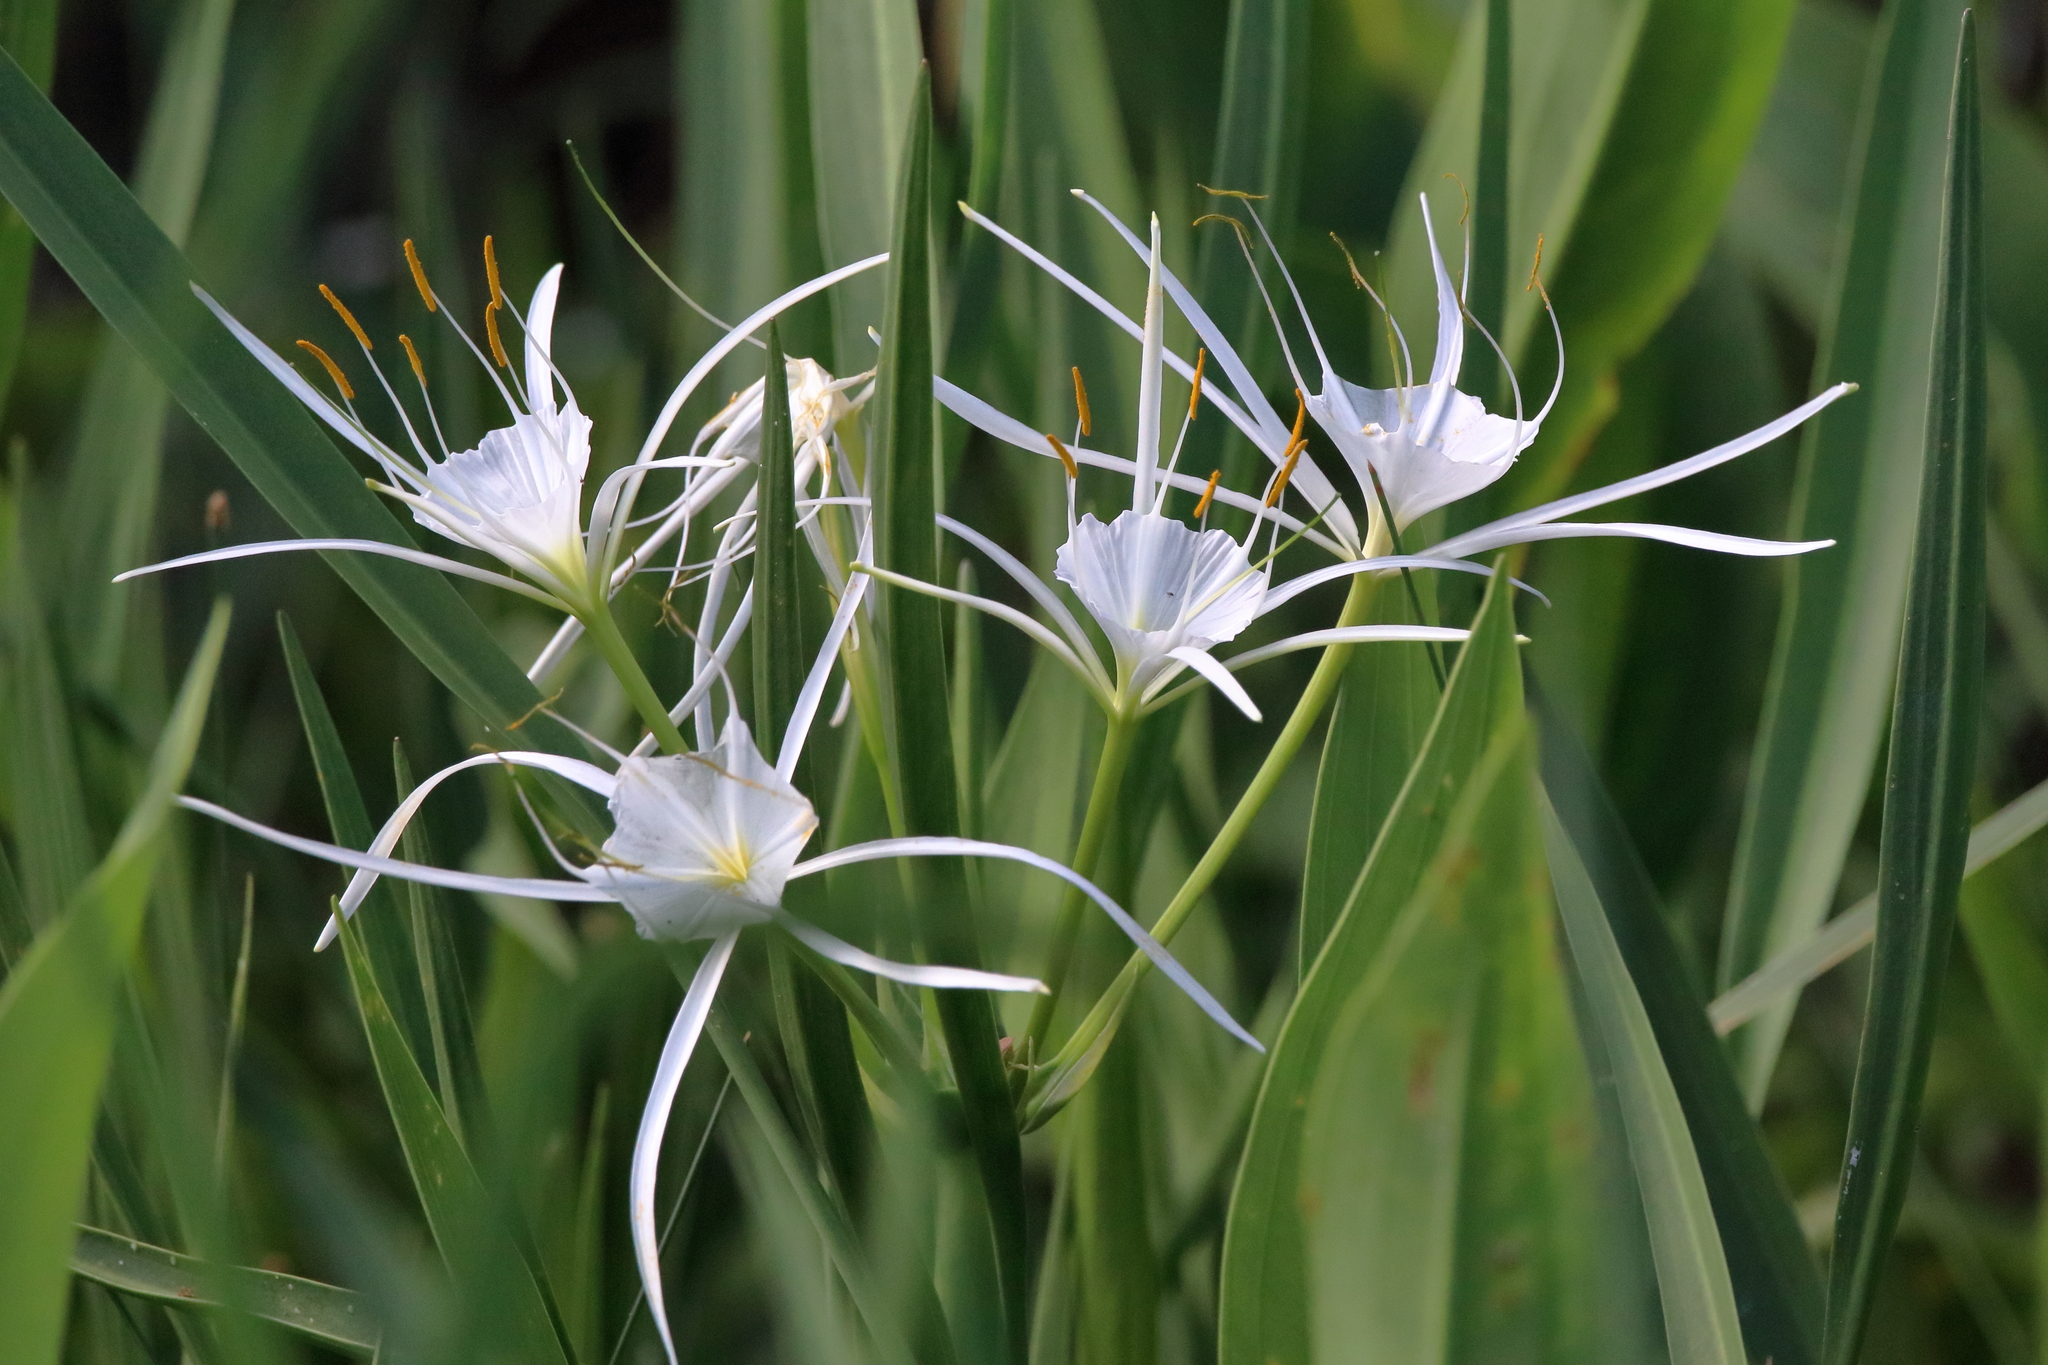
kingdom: Plantae
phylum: Tracheophyta
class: Liliopsida
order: Asparagales
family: Amaryllidaceae
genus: Hymenocallis
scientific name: Hymenocallis choctawensis
